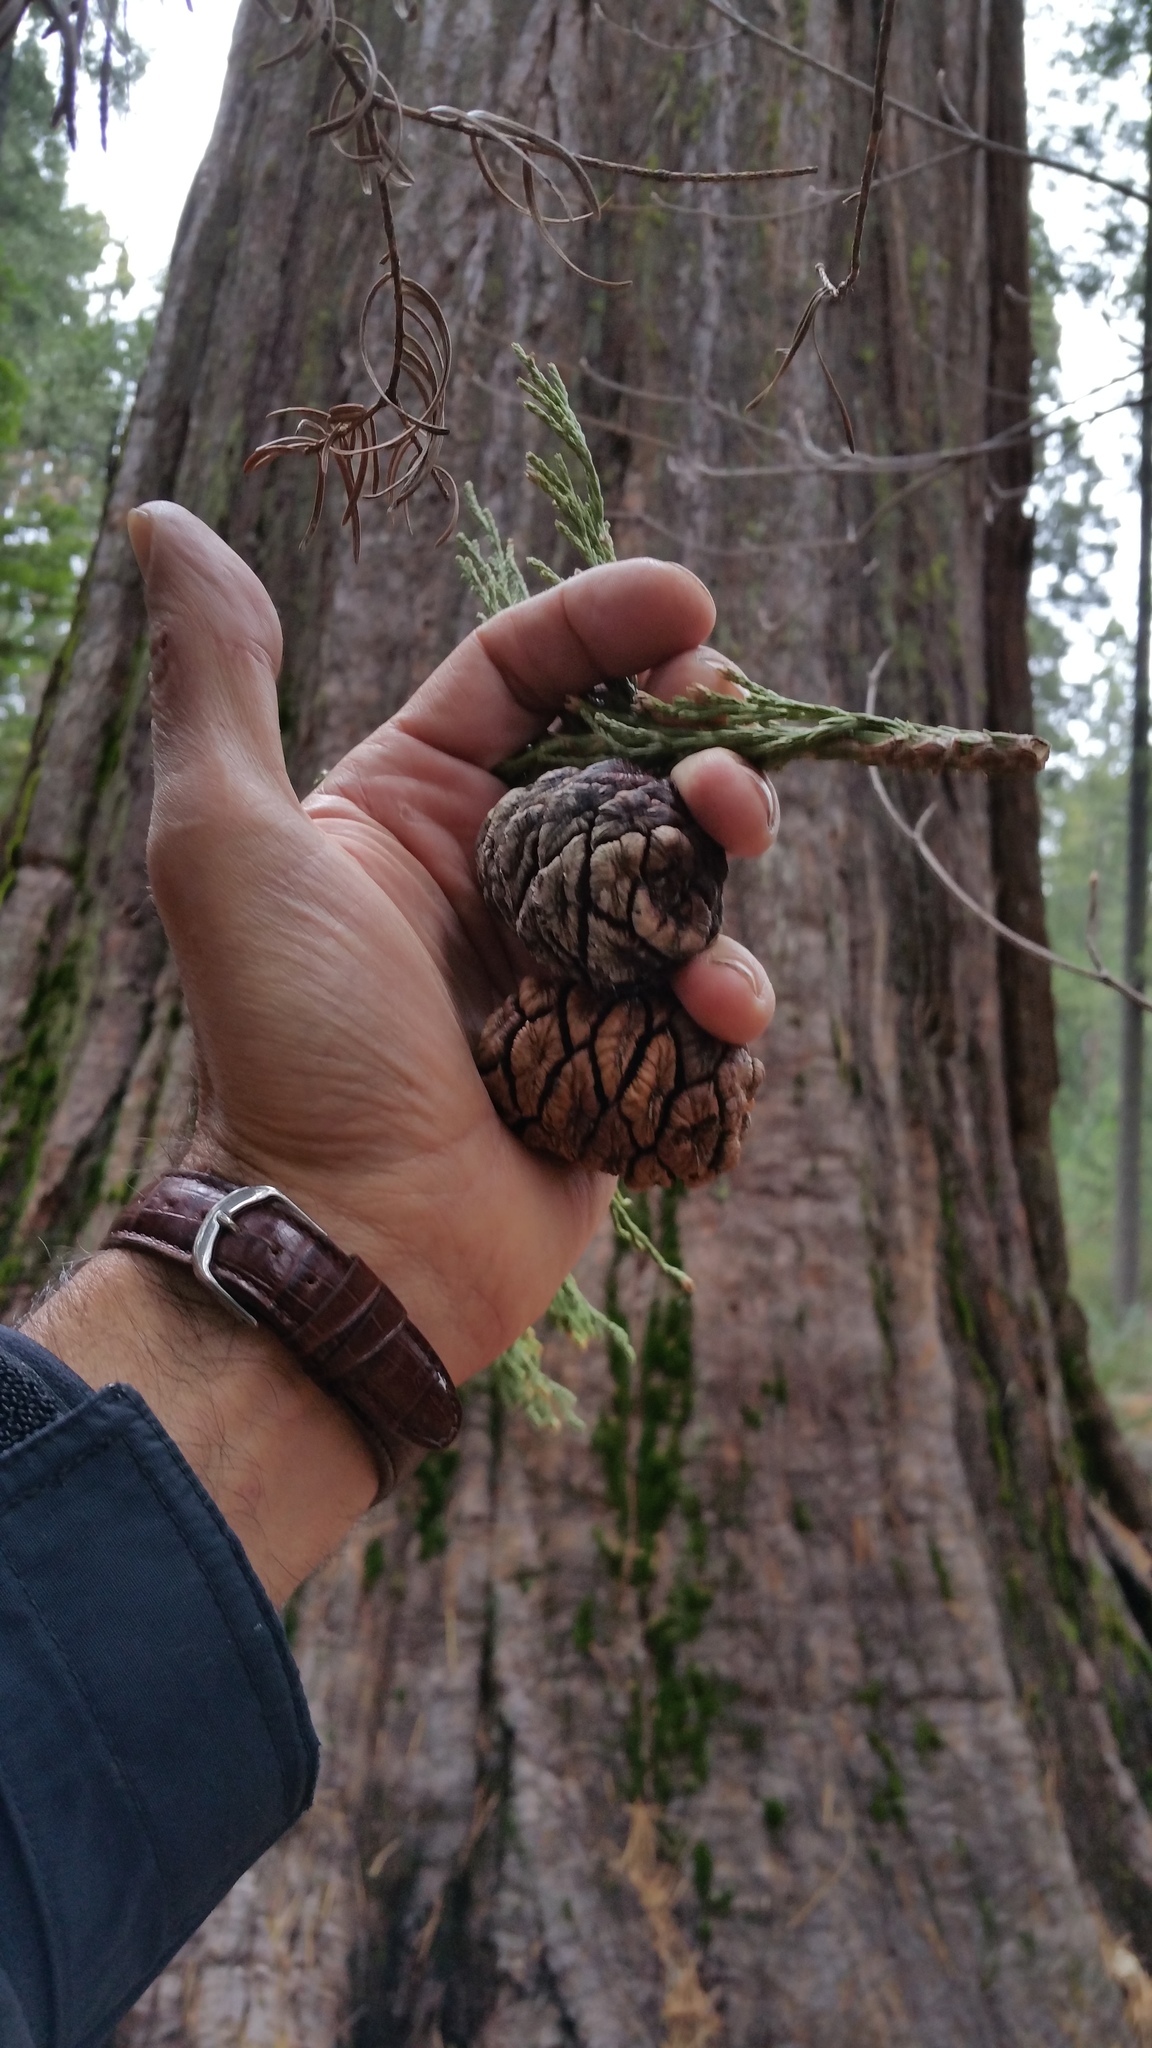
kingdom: Plantae
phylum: Tracheophyta
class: Pinopsida
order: Pinales
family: Cupressaceae
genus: Sequoiadendron
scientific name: Sequoiadendron giganteum
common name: Wellingtonia
